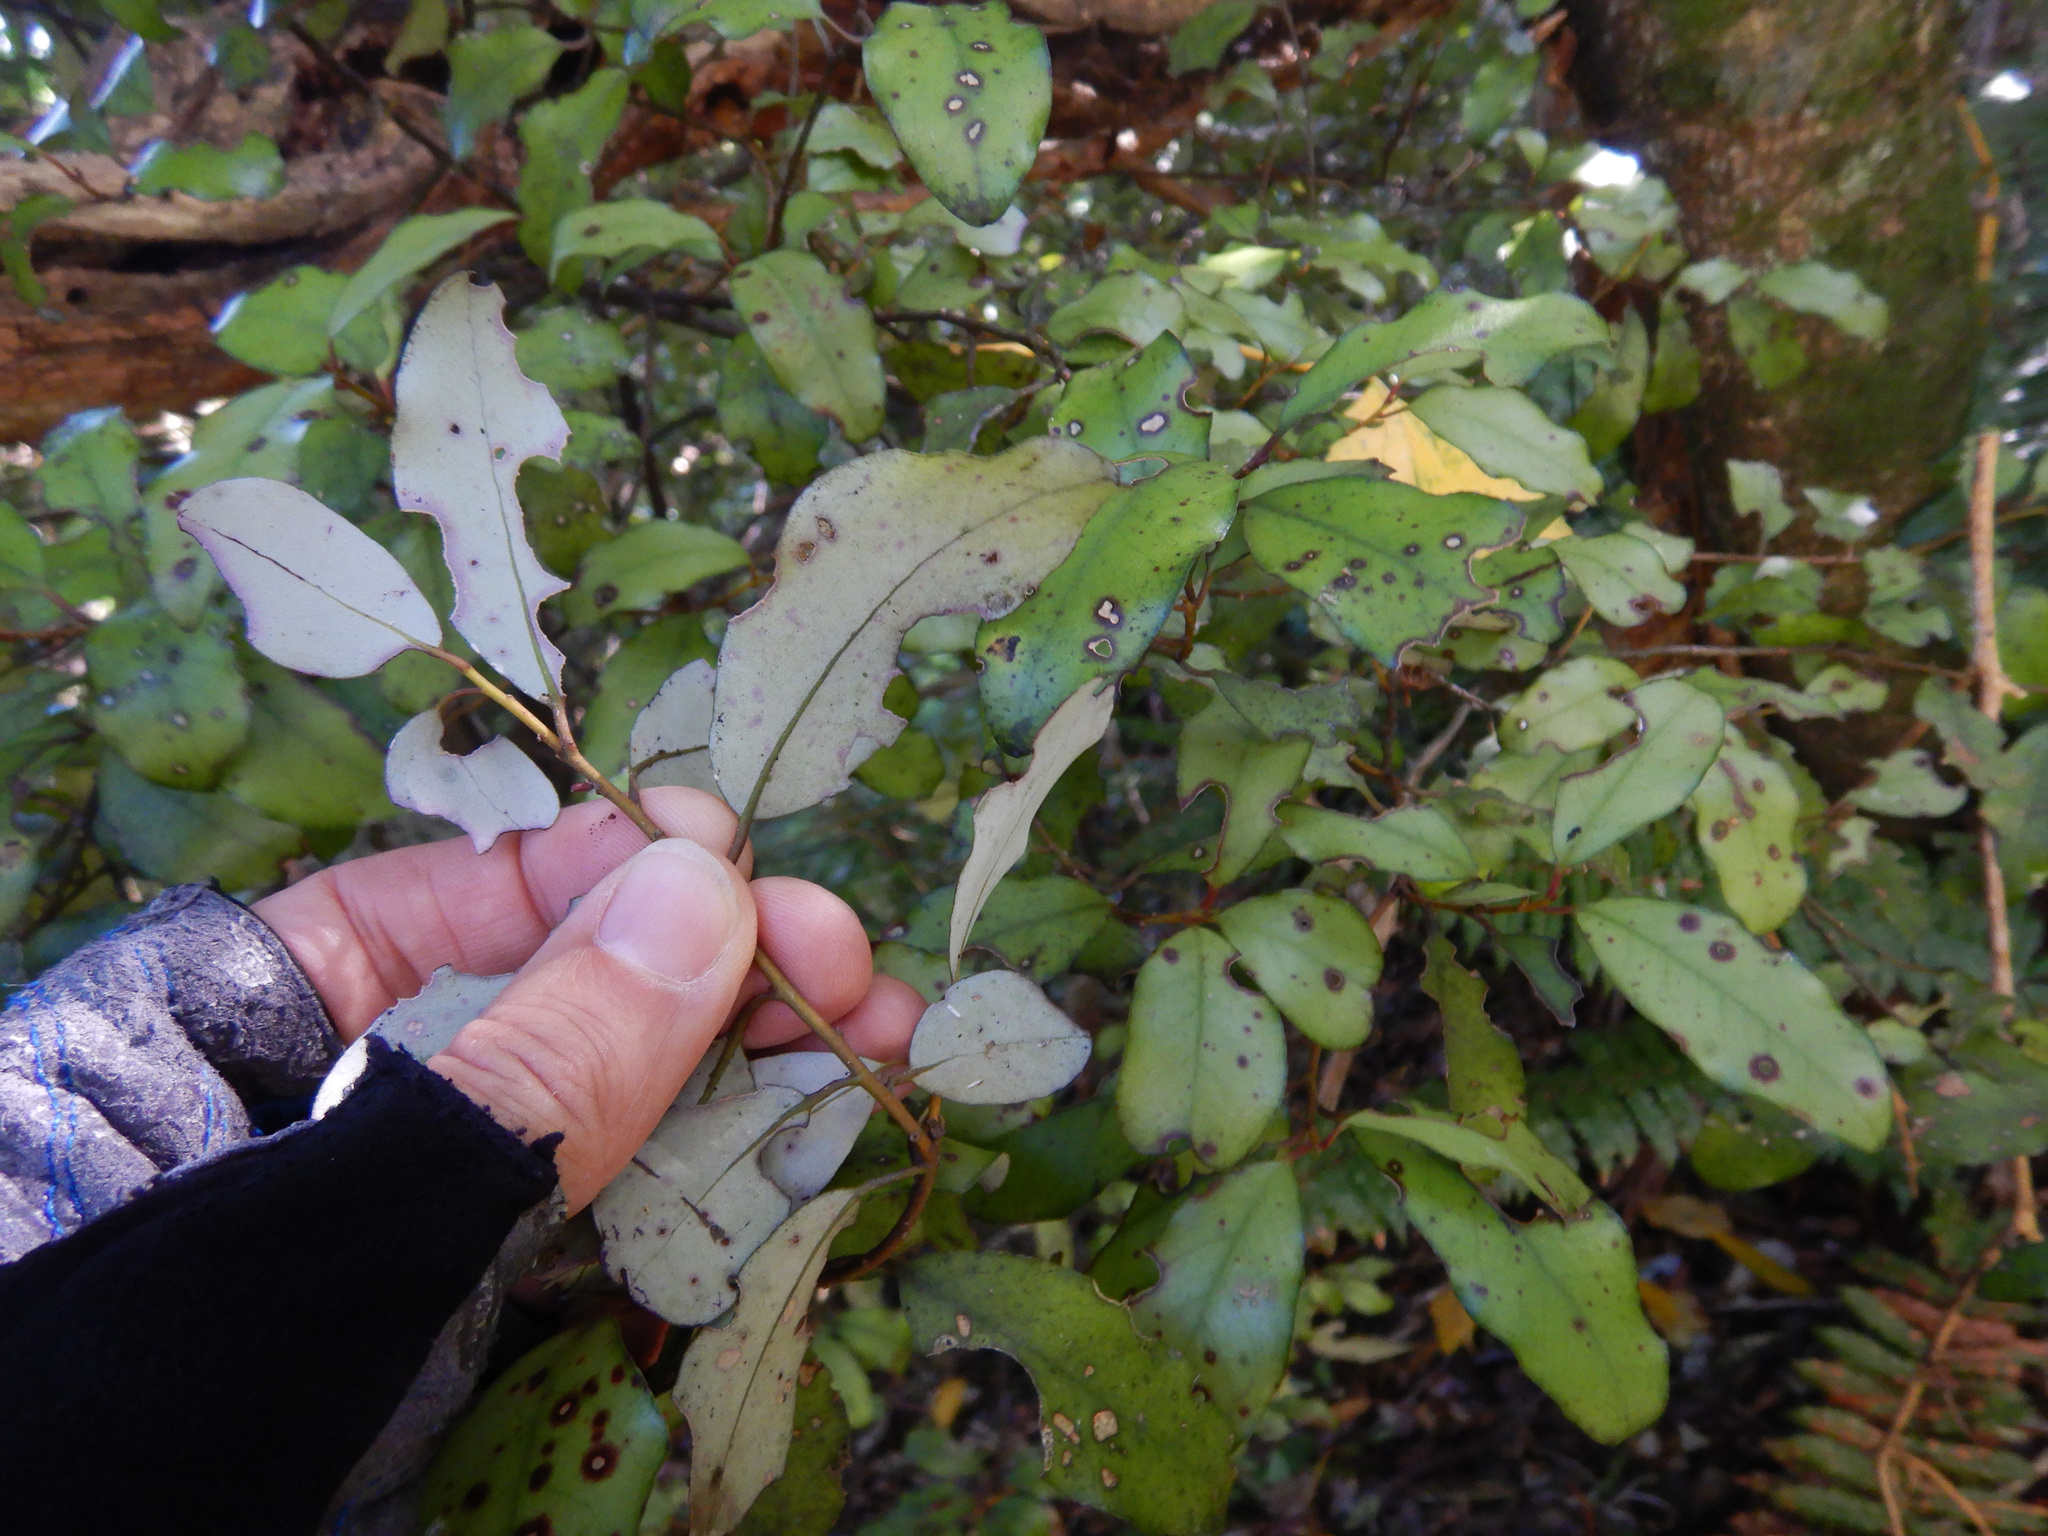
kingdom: Plantae
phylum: Tracheophyta
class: Magnoliopsida
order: Canellales
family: Winteraceae
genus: Pseudowintera
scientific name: Pseudowintera colorata
